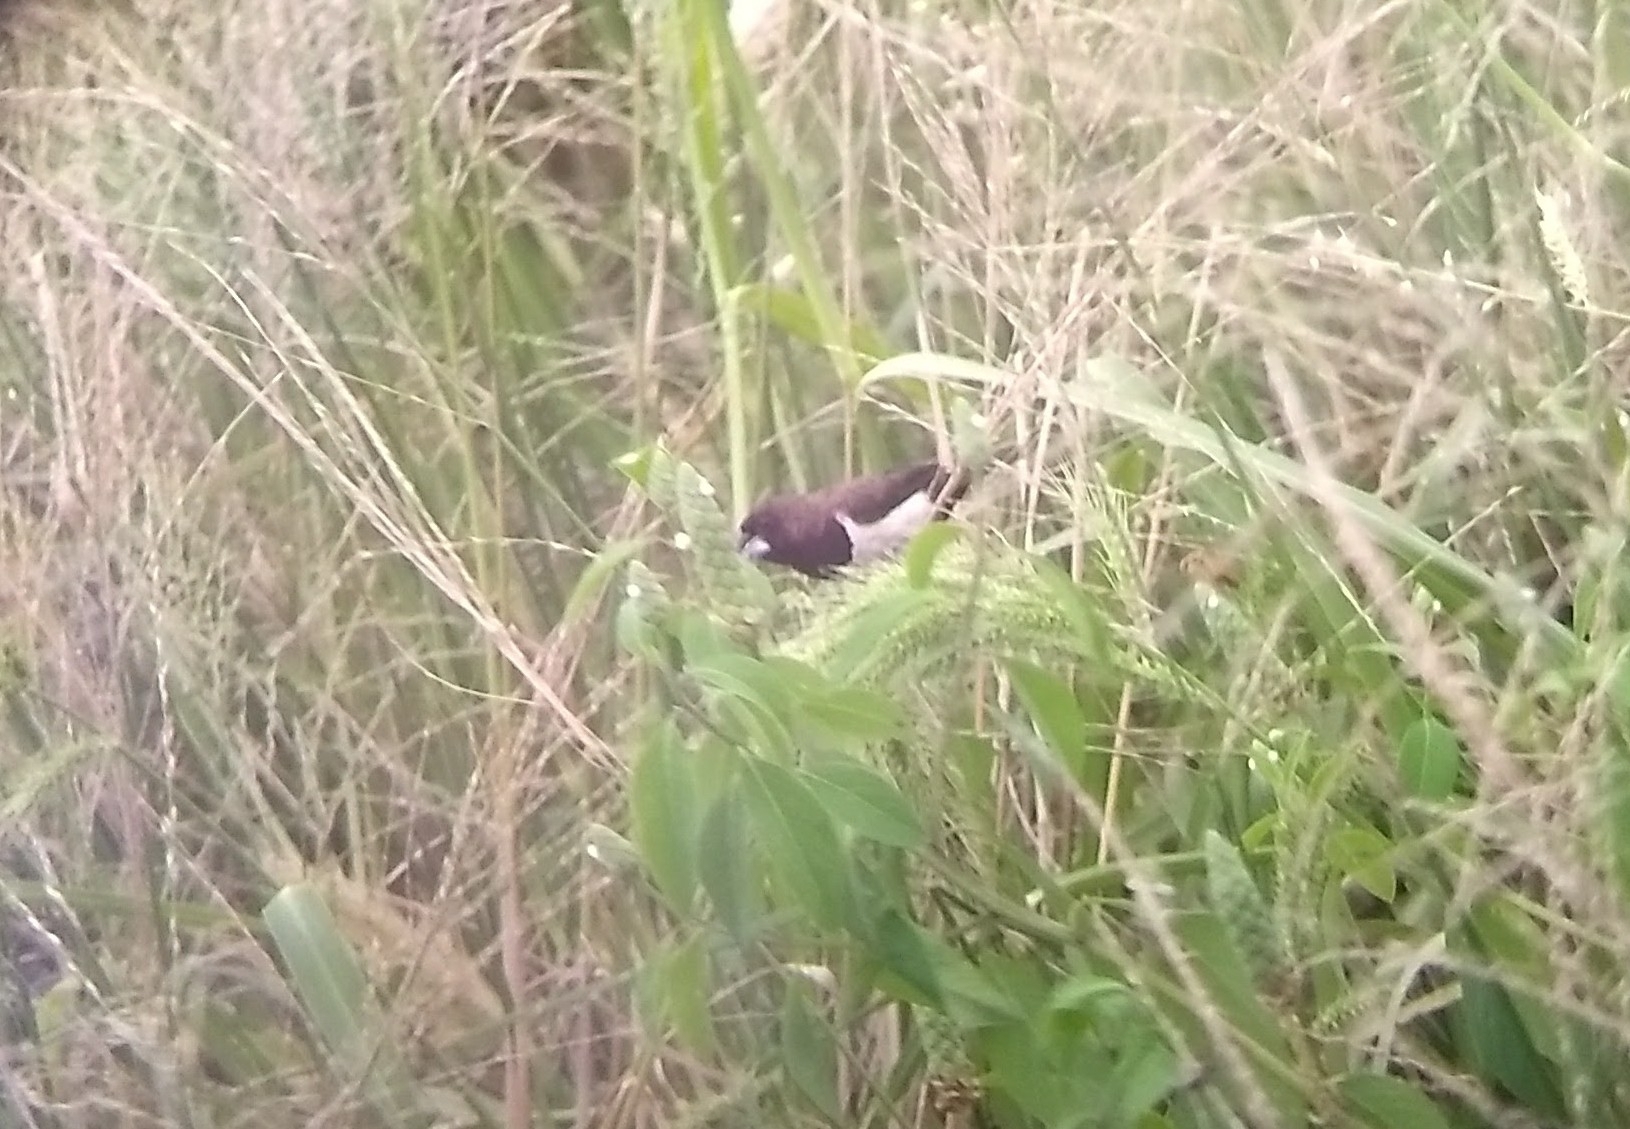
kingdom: Animalia
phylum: Chordata
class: Aves
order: Passeriformes
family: Estrildidae
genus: Lonchura
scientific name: Lonchura striata
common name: White-rumped munia
